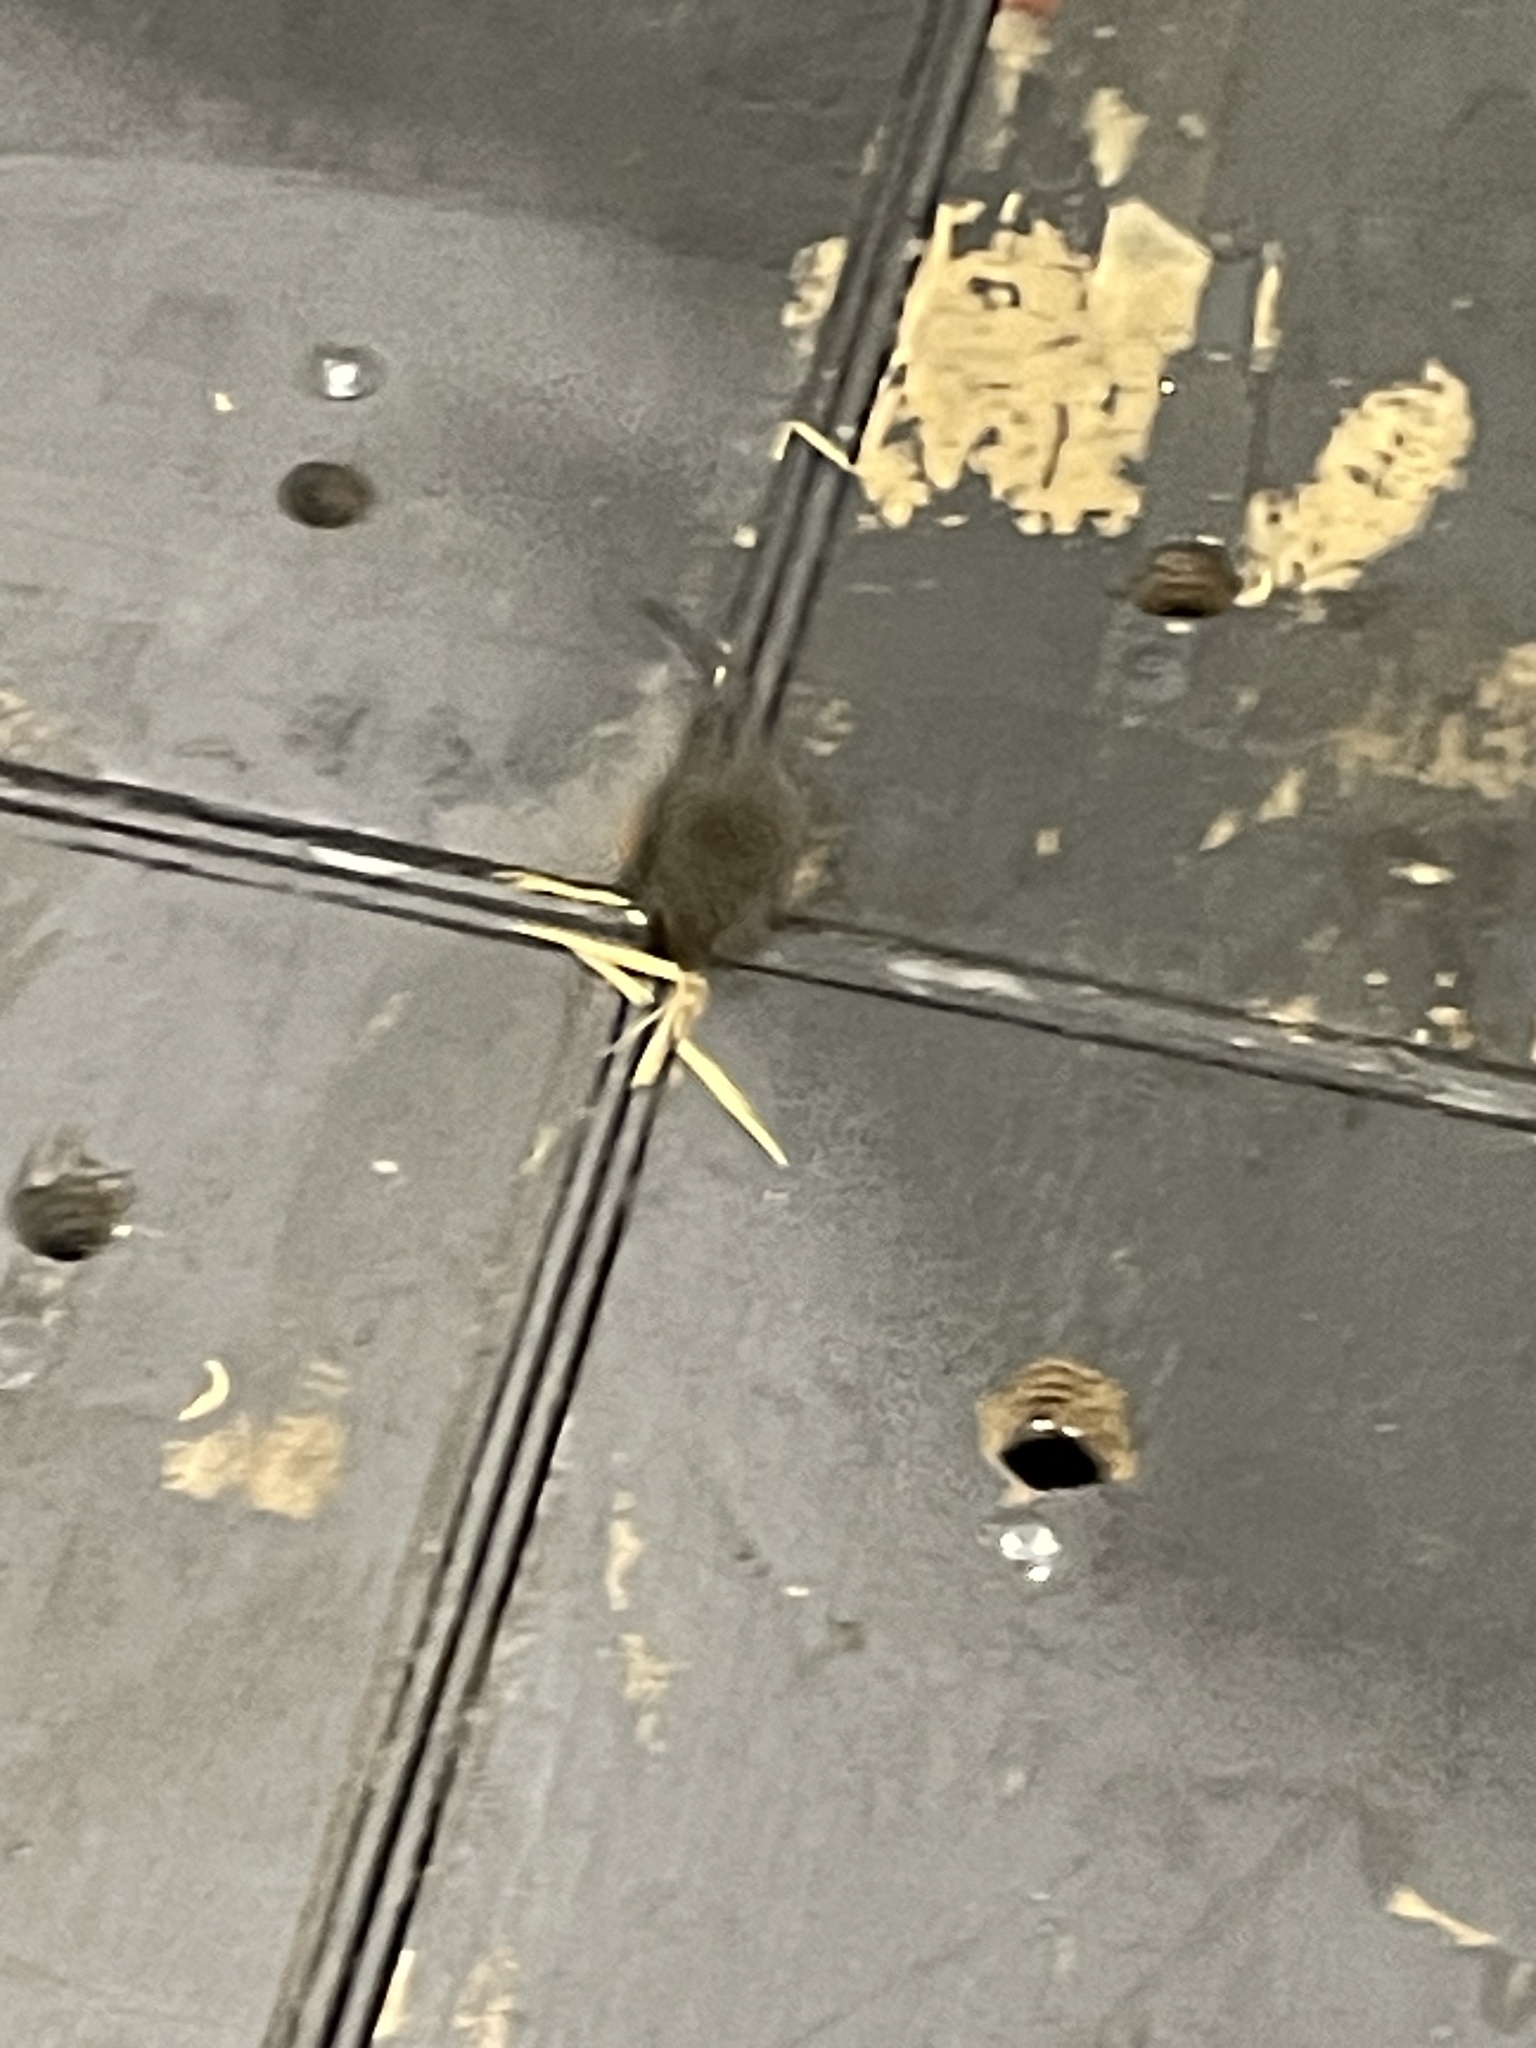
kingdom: Animalia
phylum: Chordata
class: Mammalia
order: Rodentia
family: Muridae
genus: Mus
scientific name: Mus musculus
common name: House mouse
